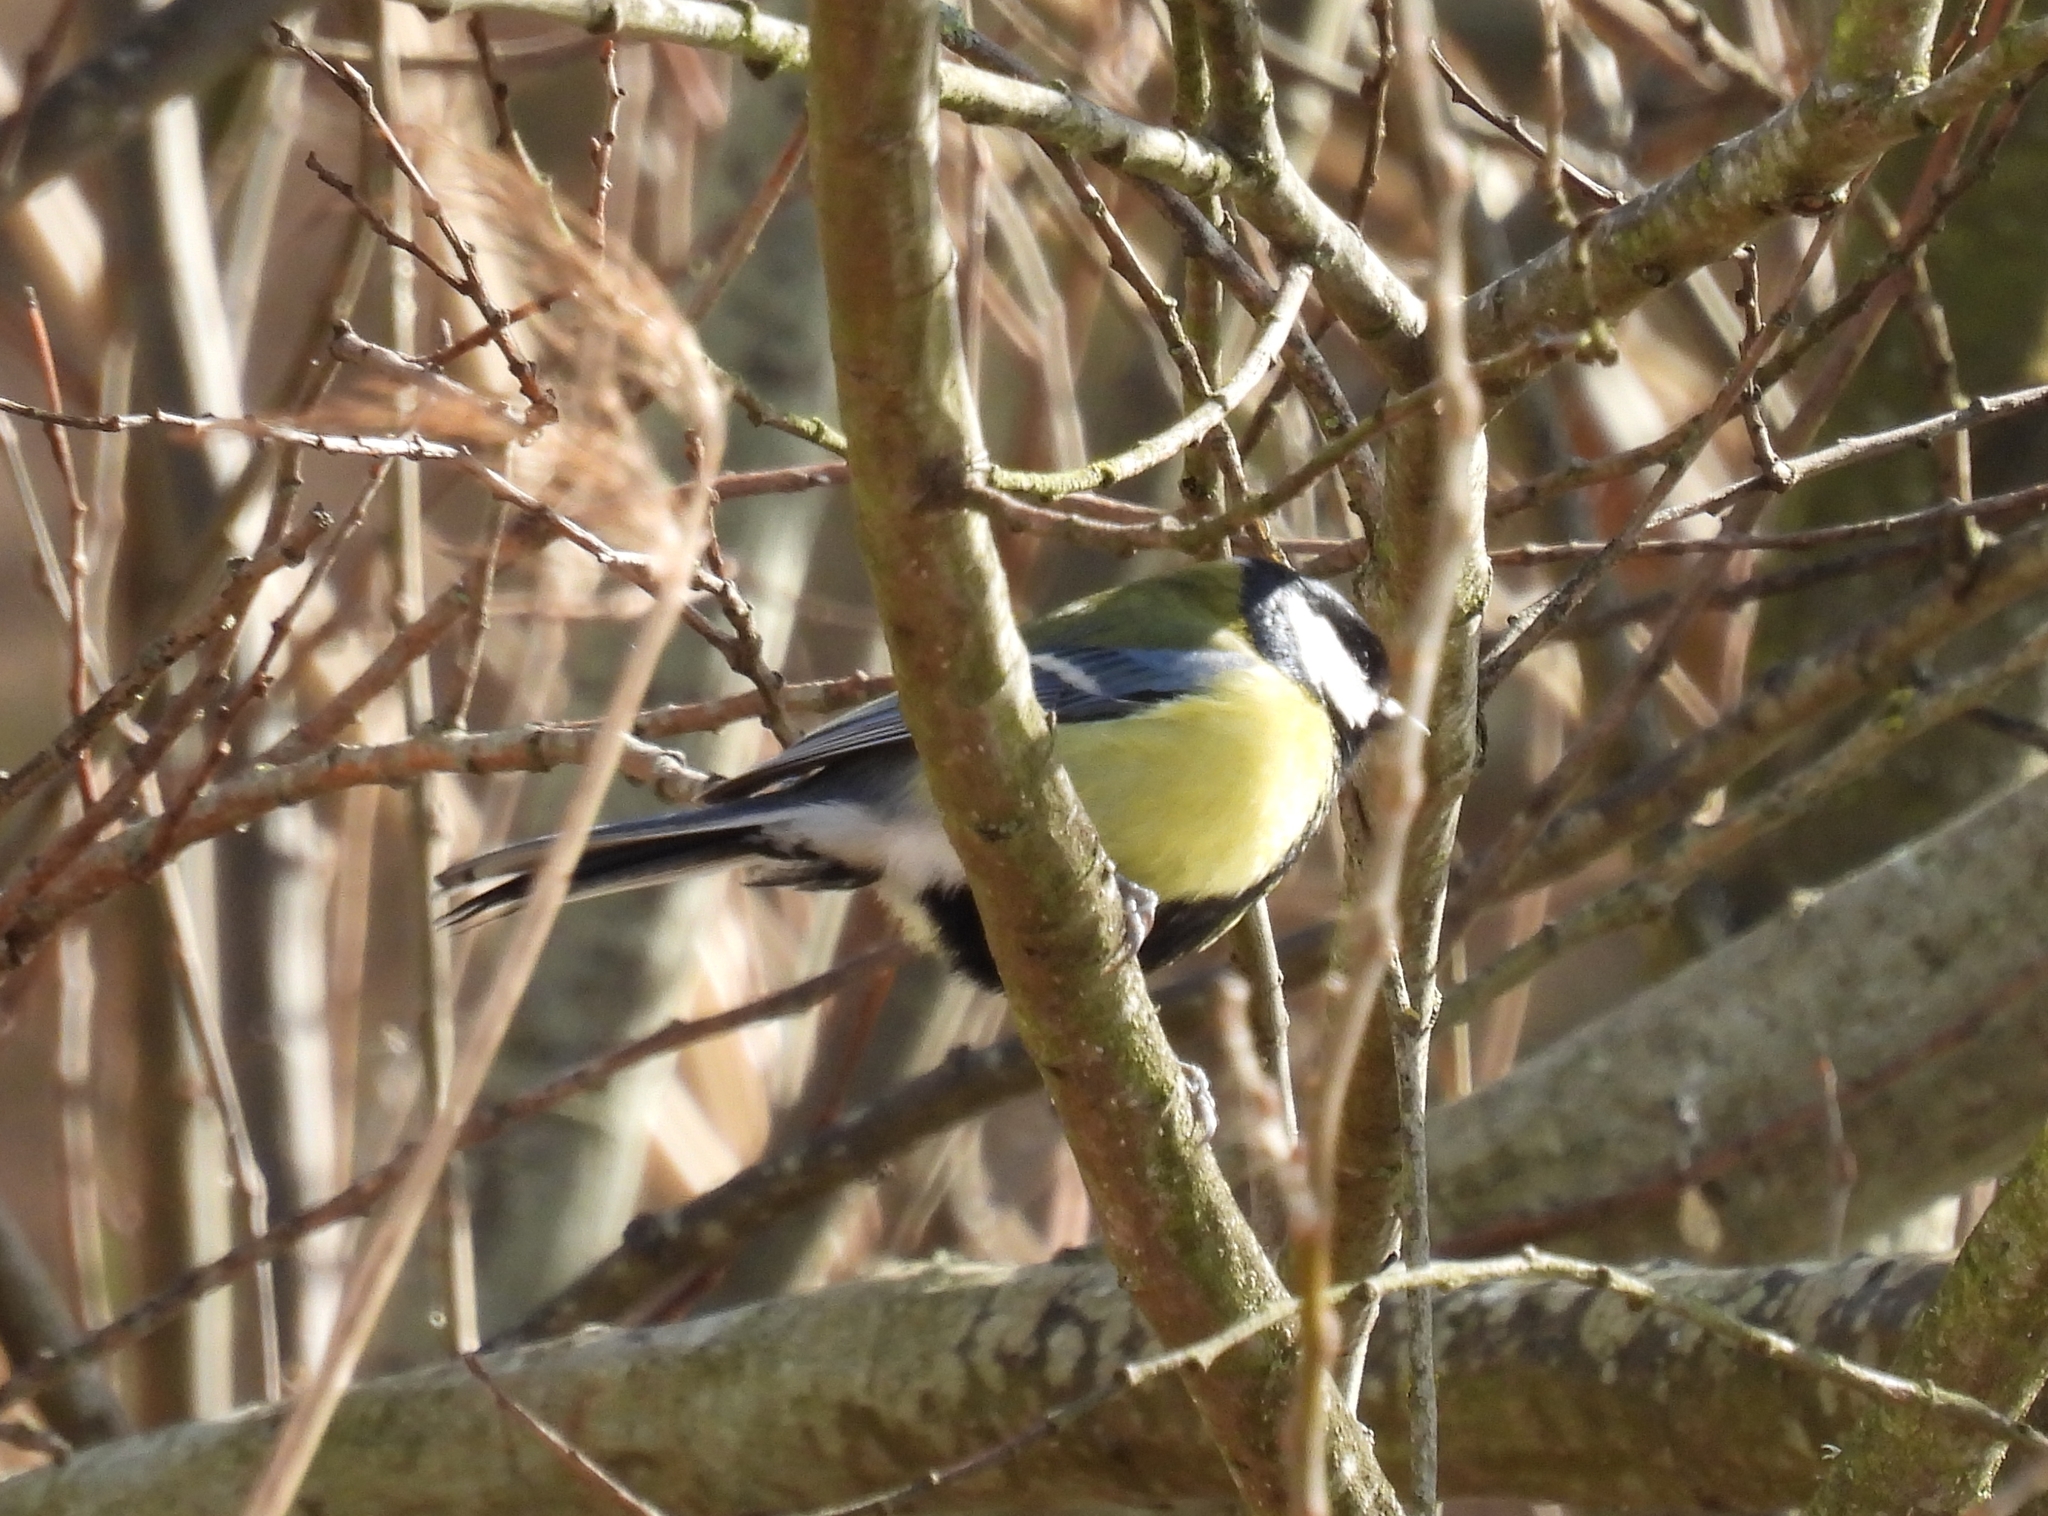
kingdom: Animalia
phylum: Chordata
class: Aves
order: Passeriformes
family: Paridae
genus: Parus
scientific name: Parus major
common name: Great tit
